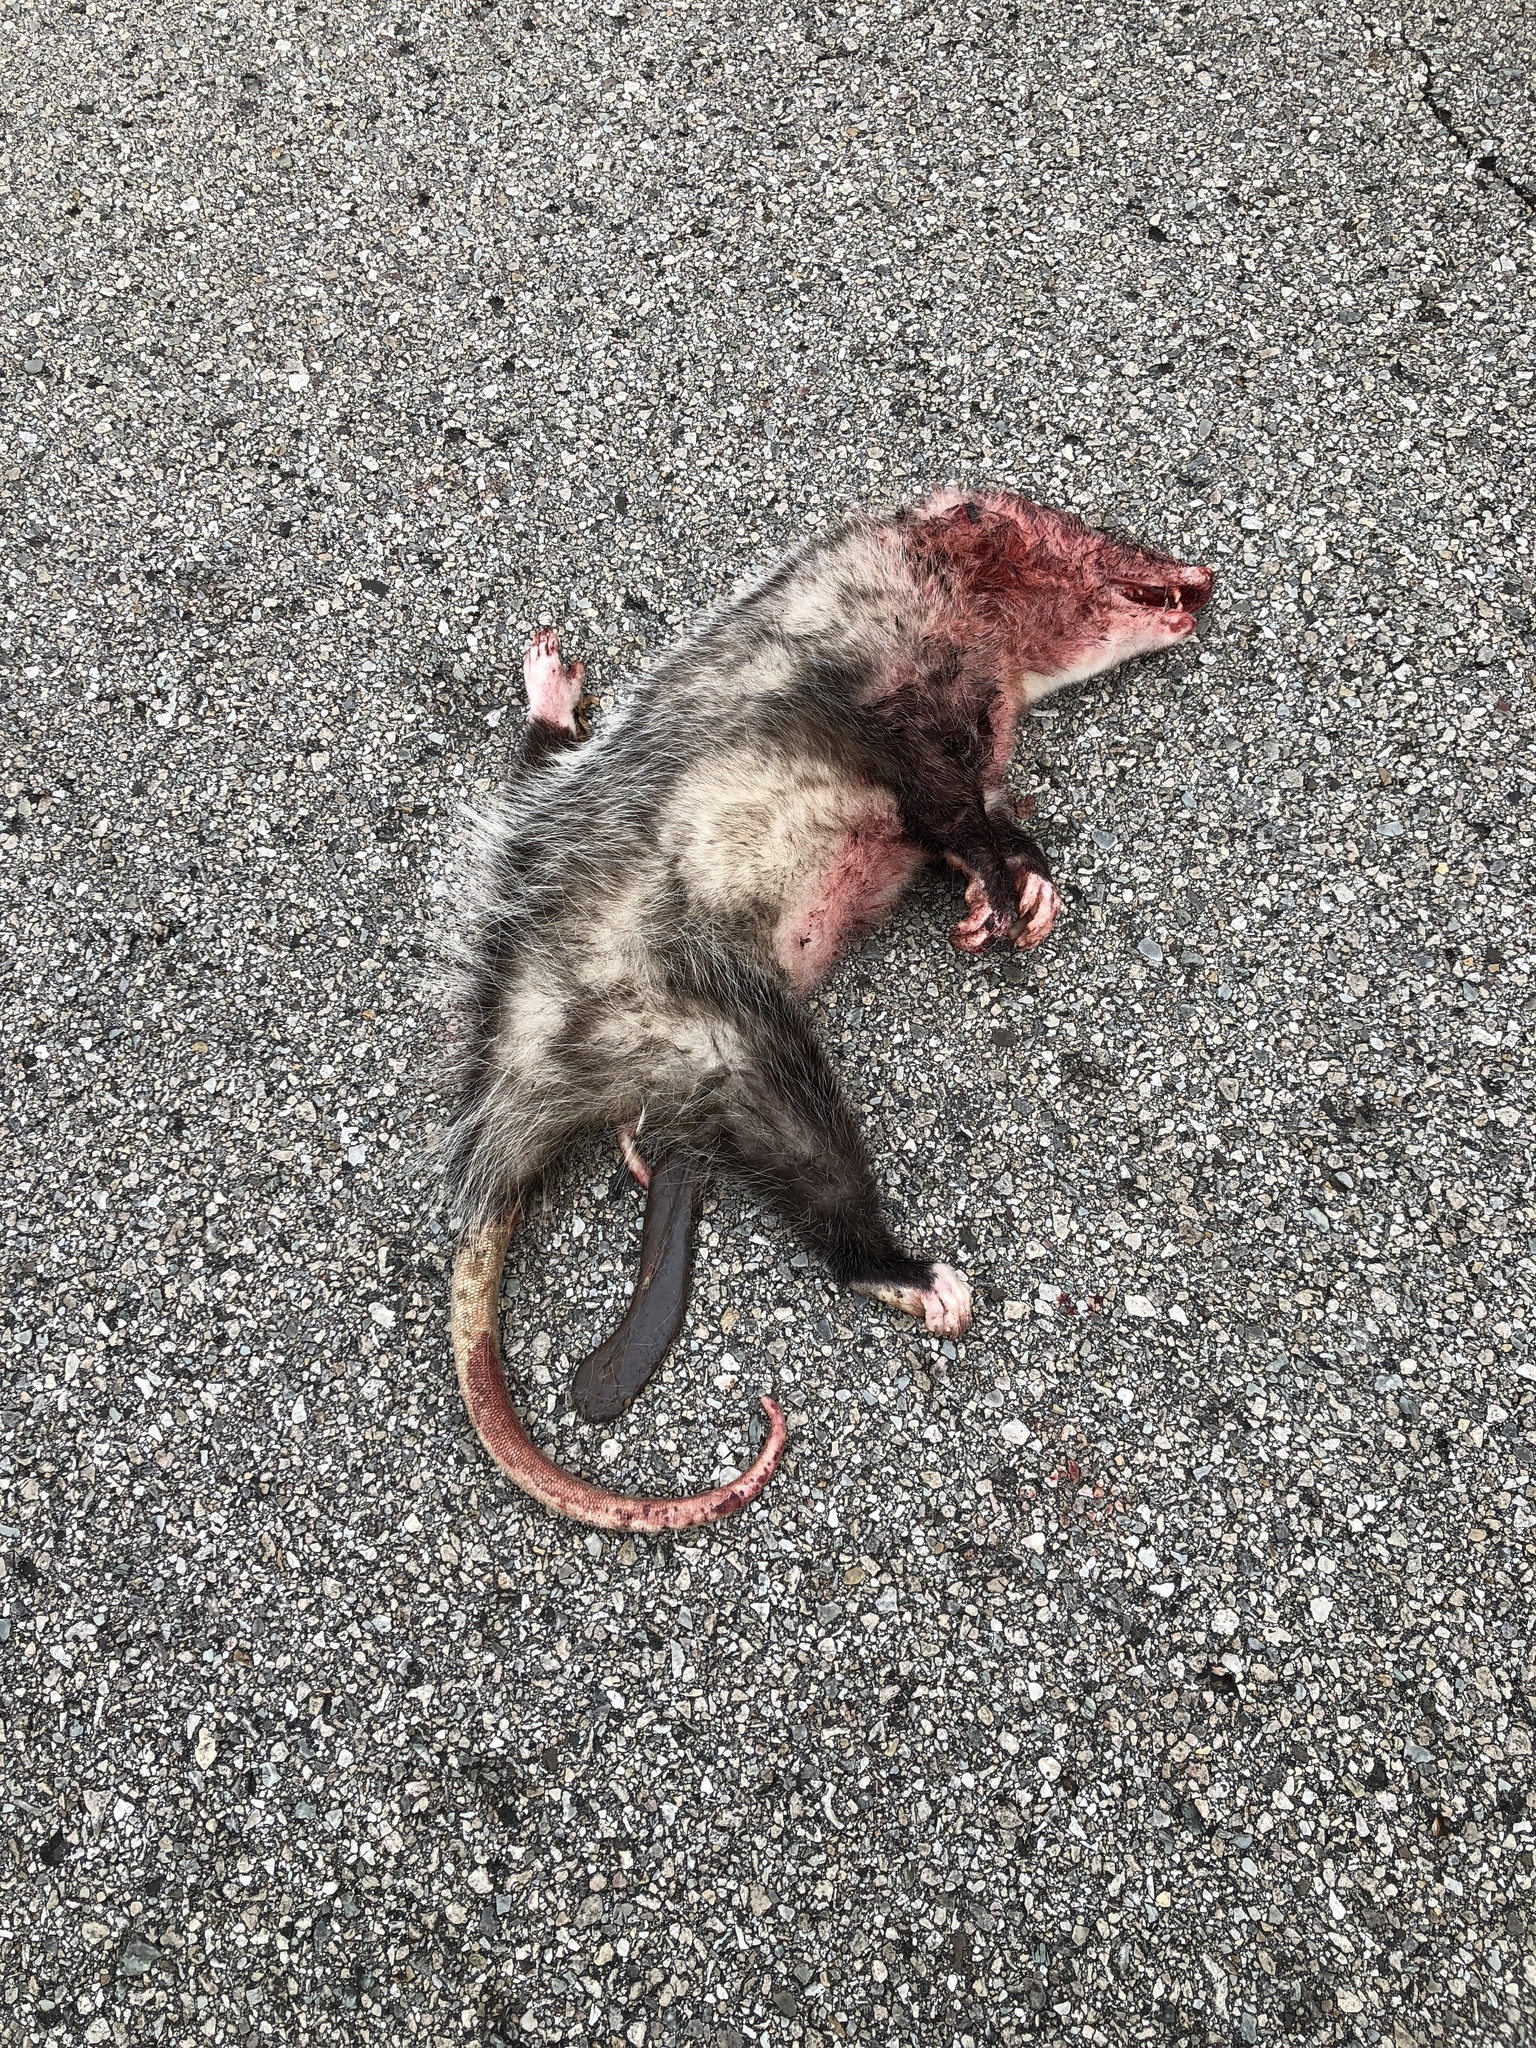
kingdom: Animalia
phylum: Chordata
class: Mammalia
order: Didelphimorphia
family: Didelphidae
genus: Didelphis
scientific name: Didelphis virginiana
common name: Virginia opossum
